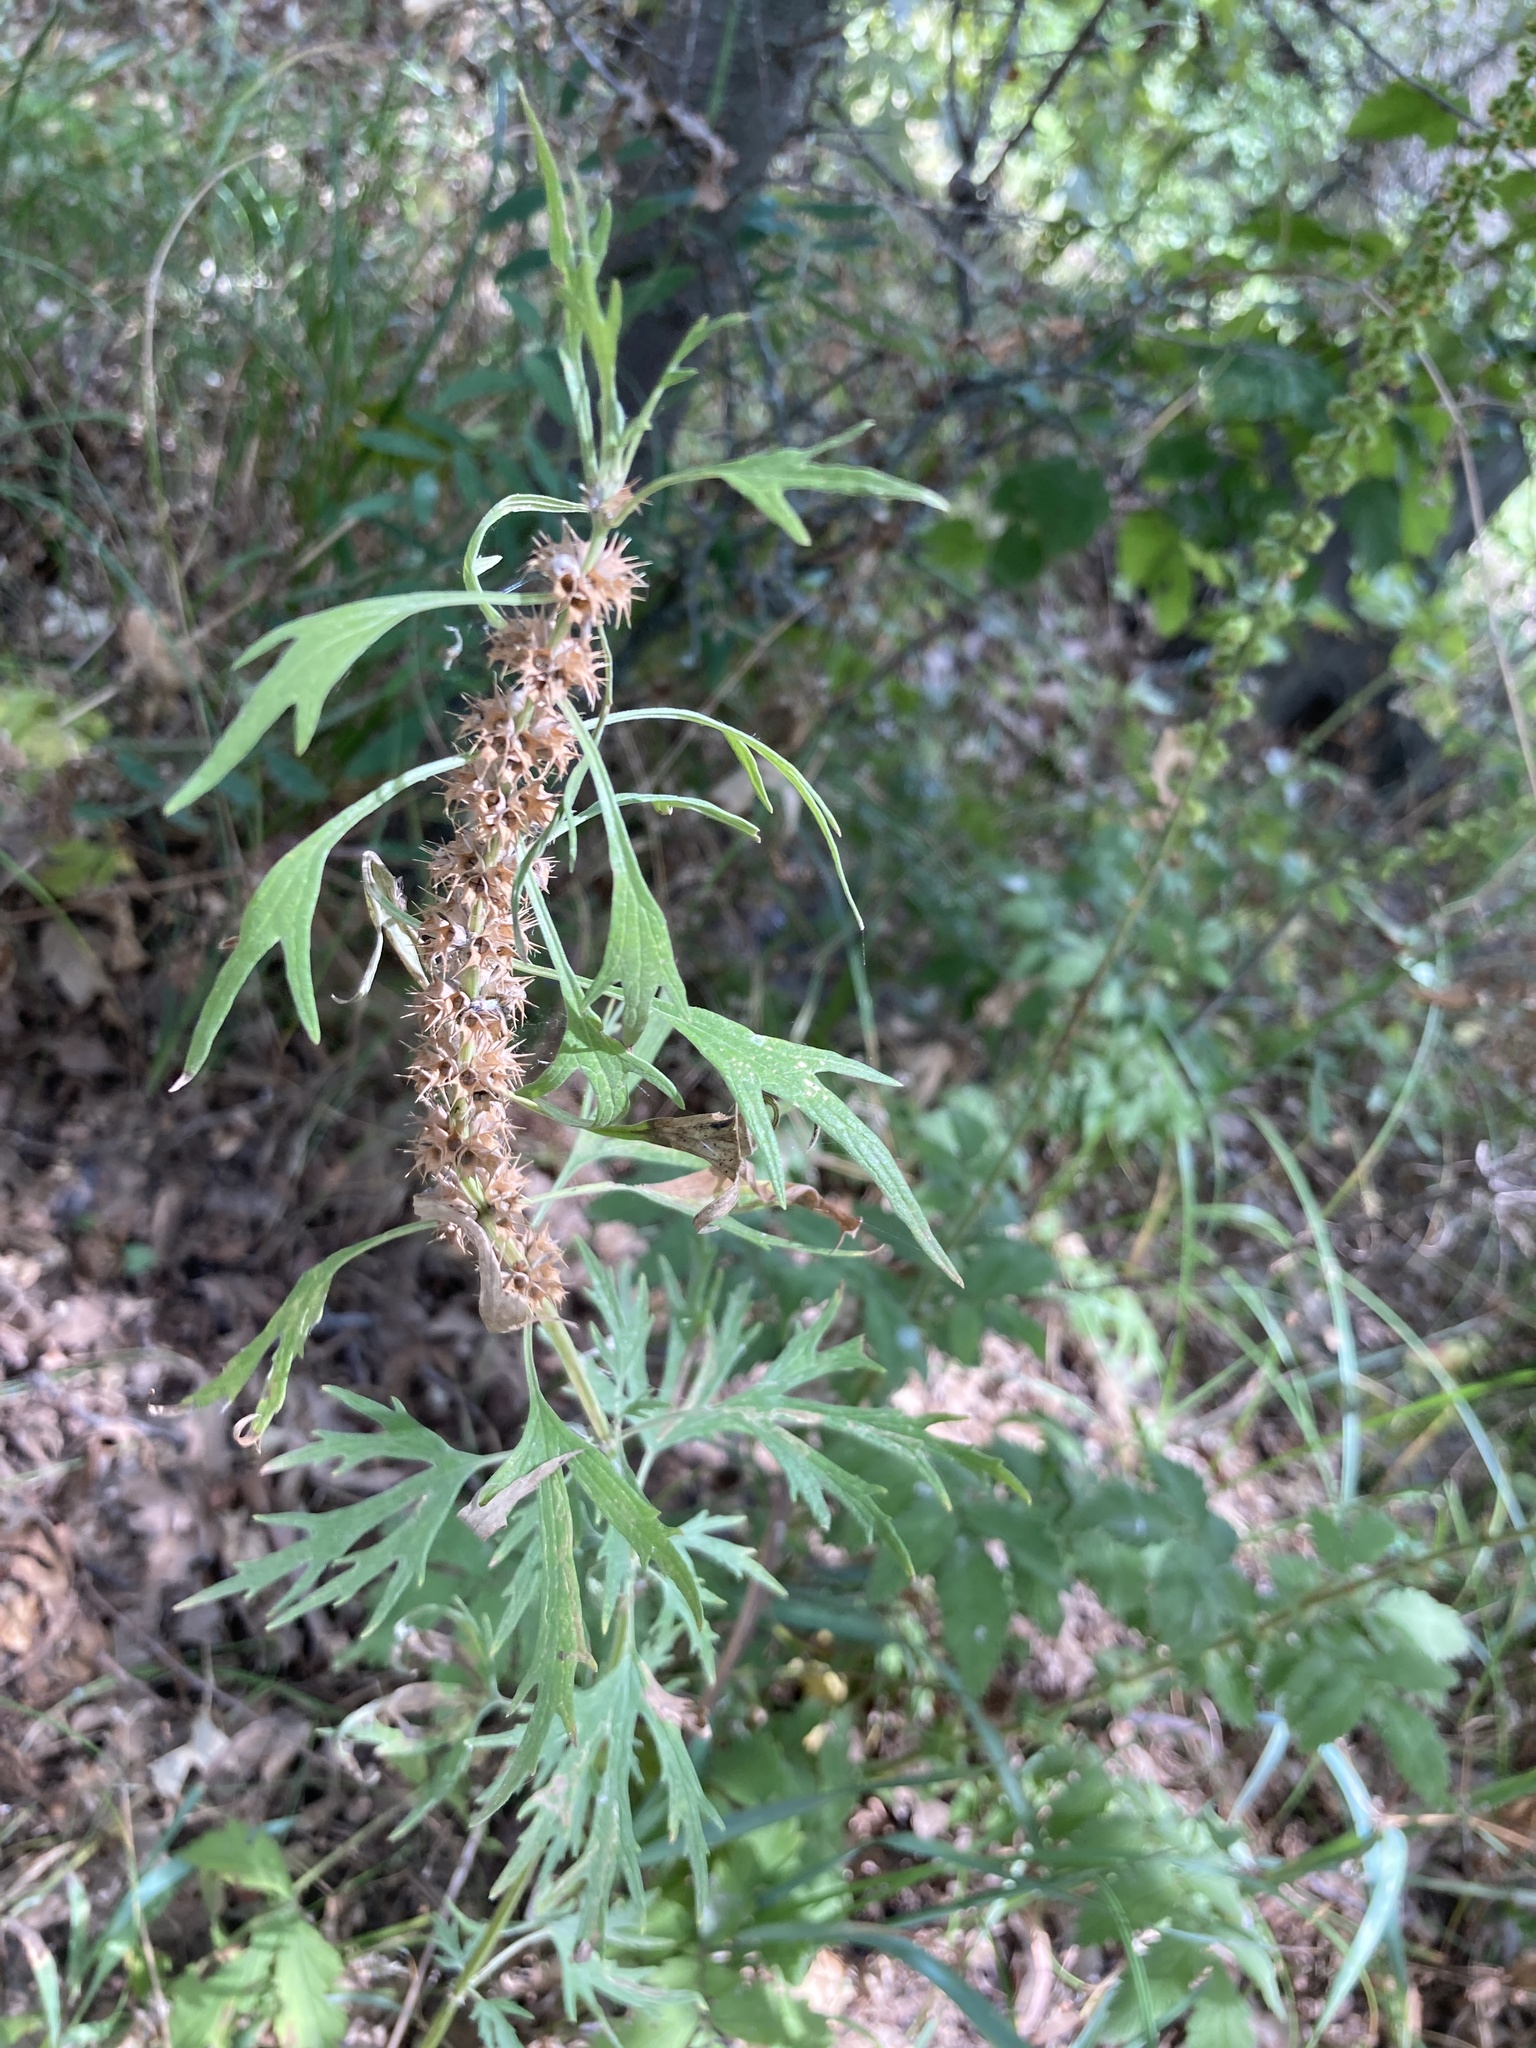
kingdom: Plantae
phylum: Tracheophyta
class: Magnoliopsida
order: Lamiales
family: Lamiaceae
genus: Leonurus
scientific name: Leonurus glaucescens
